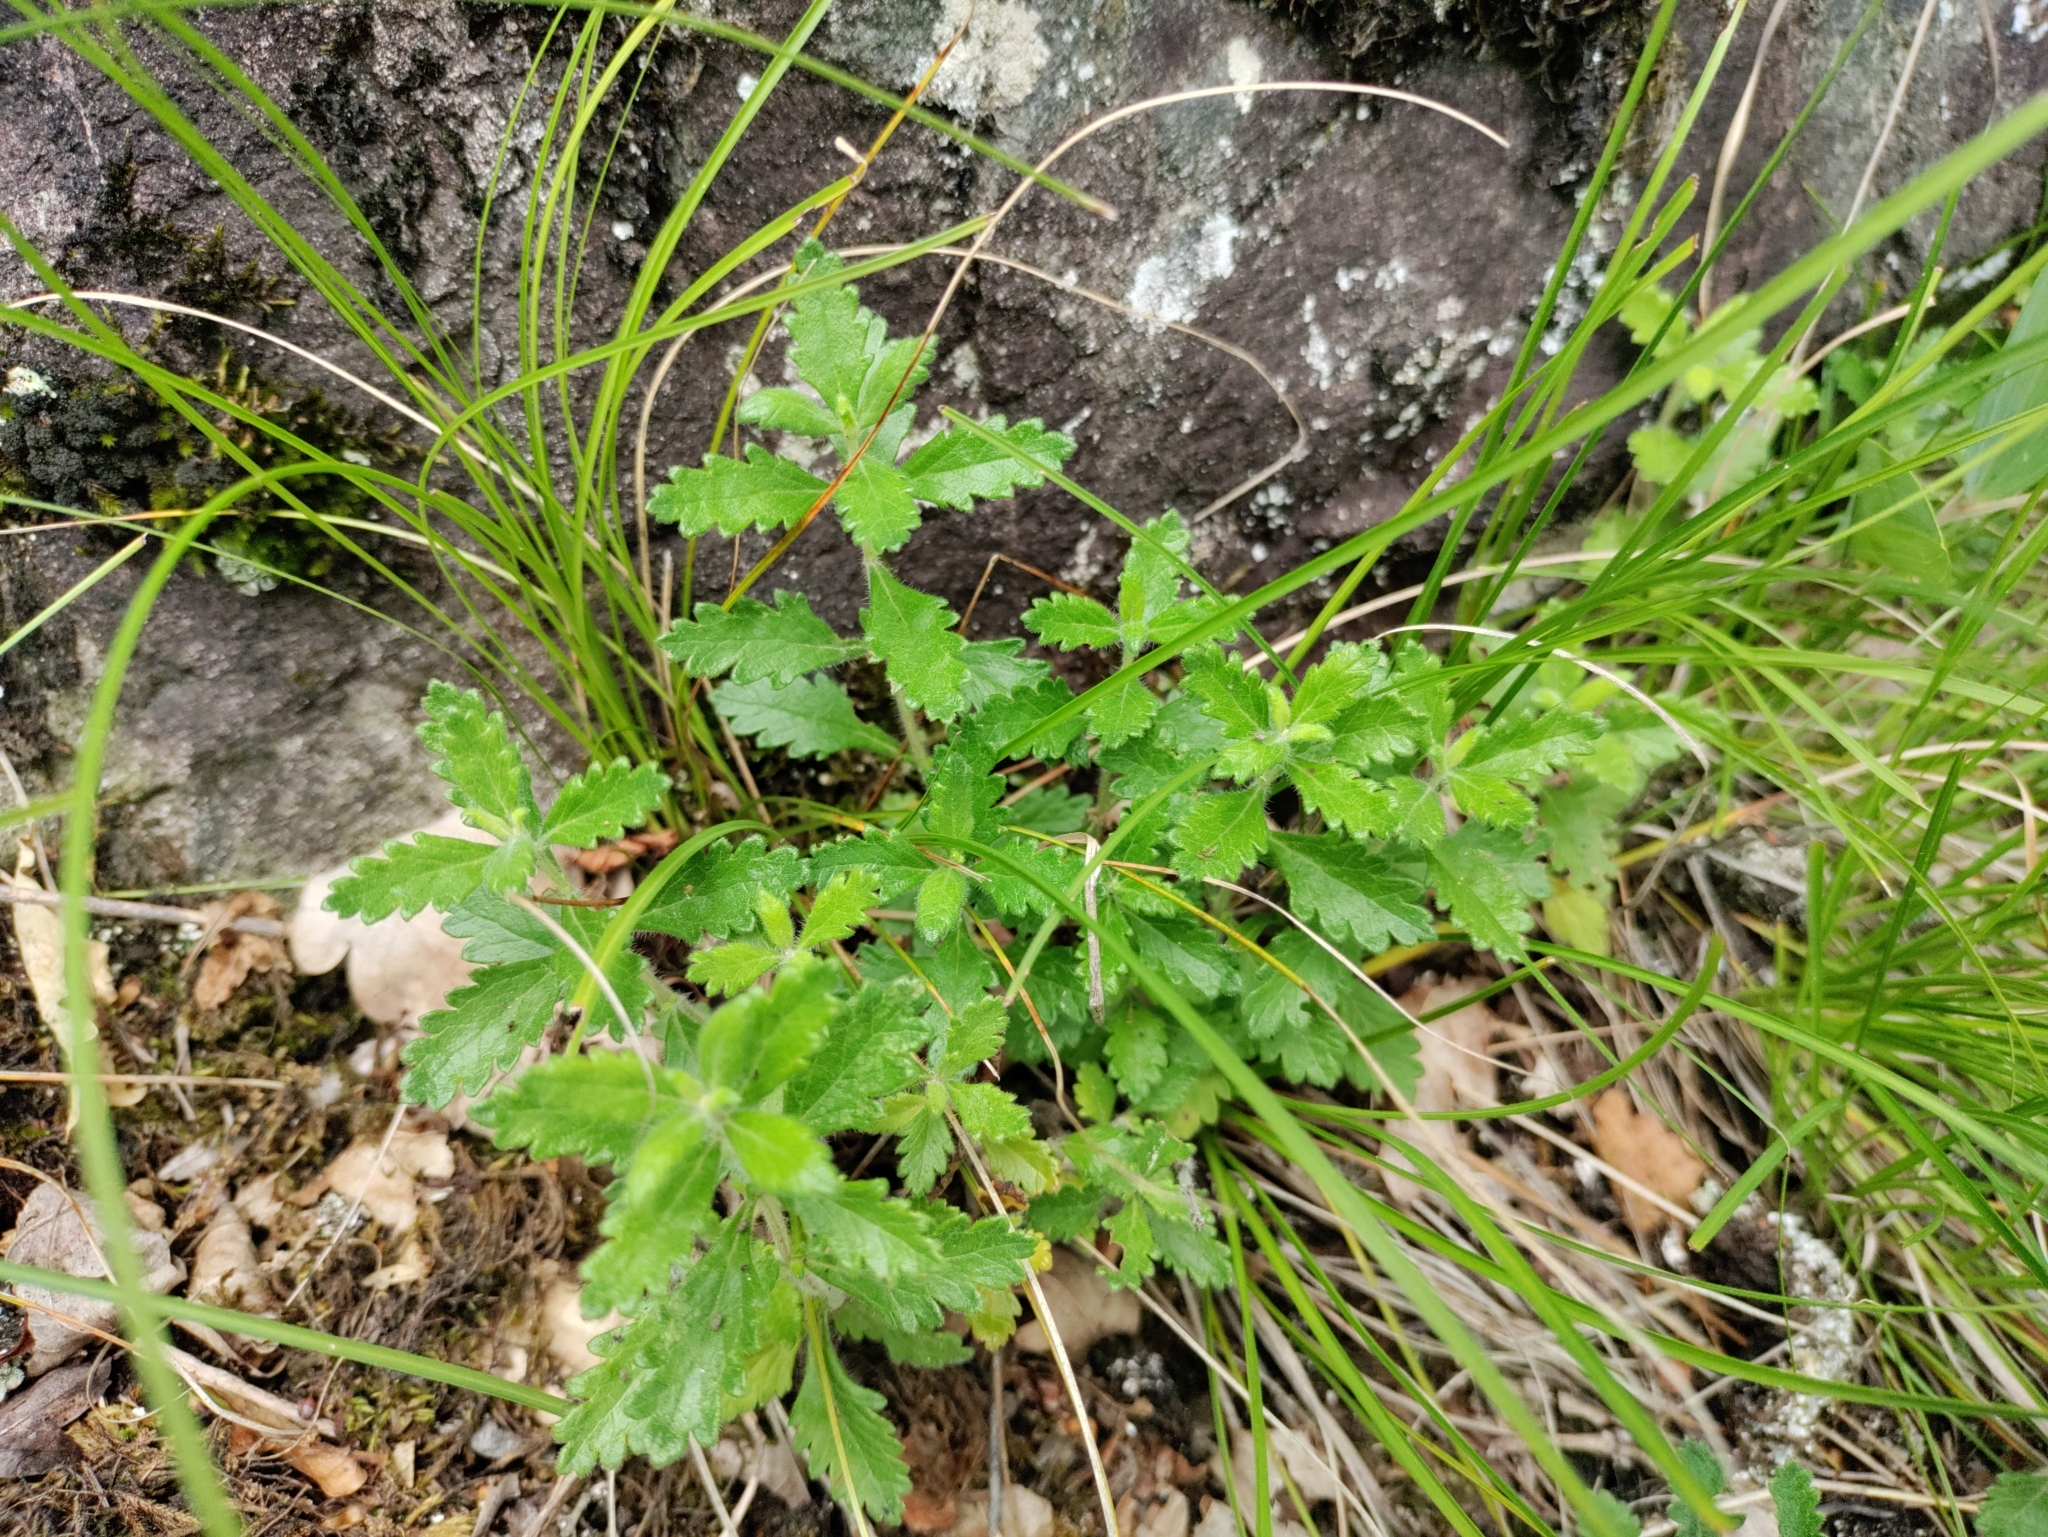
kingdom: Plantae
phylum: Tracheophyta
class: Magnoliopsida
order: Lamiales
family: Lamiaceae
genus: Teucrium
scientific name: Teucrium chamaedrys
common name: Wall germander
